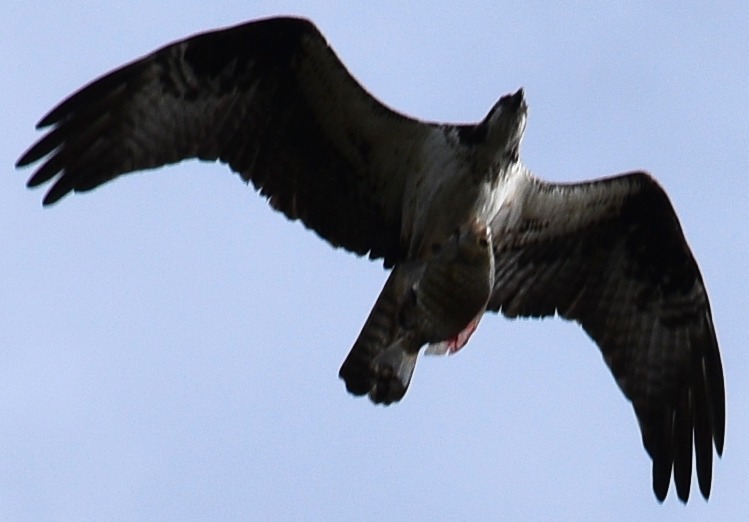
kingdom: Animalia
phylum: Chordata
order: Perciformes
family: Embiotocidae
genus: Amphistichus
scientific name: Amphistichus argenteus
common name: Barred surfperch
